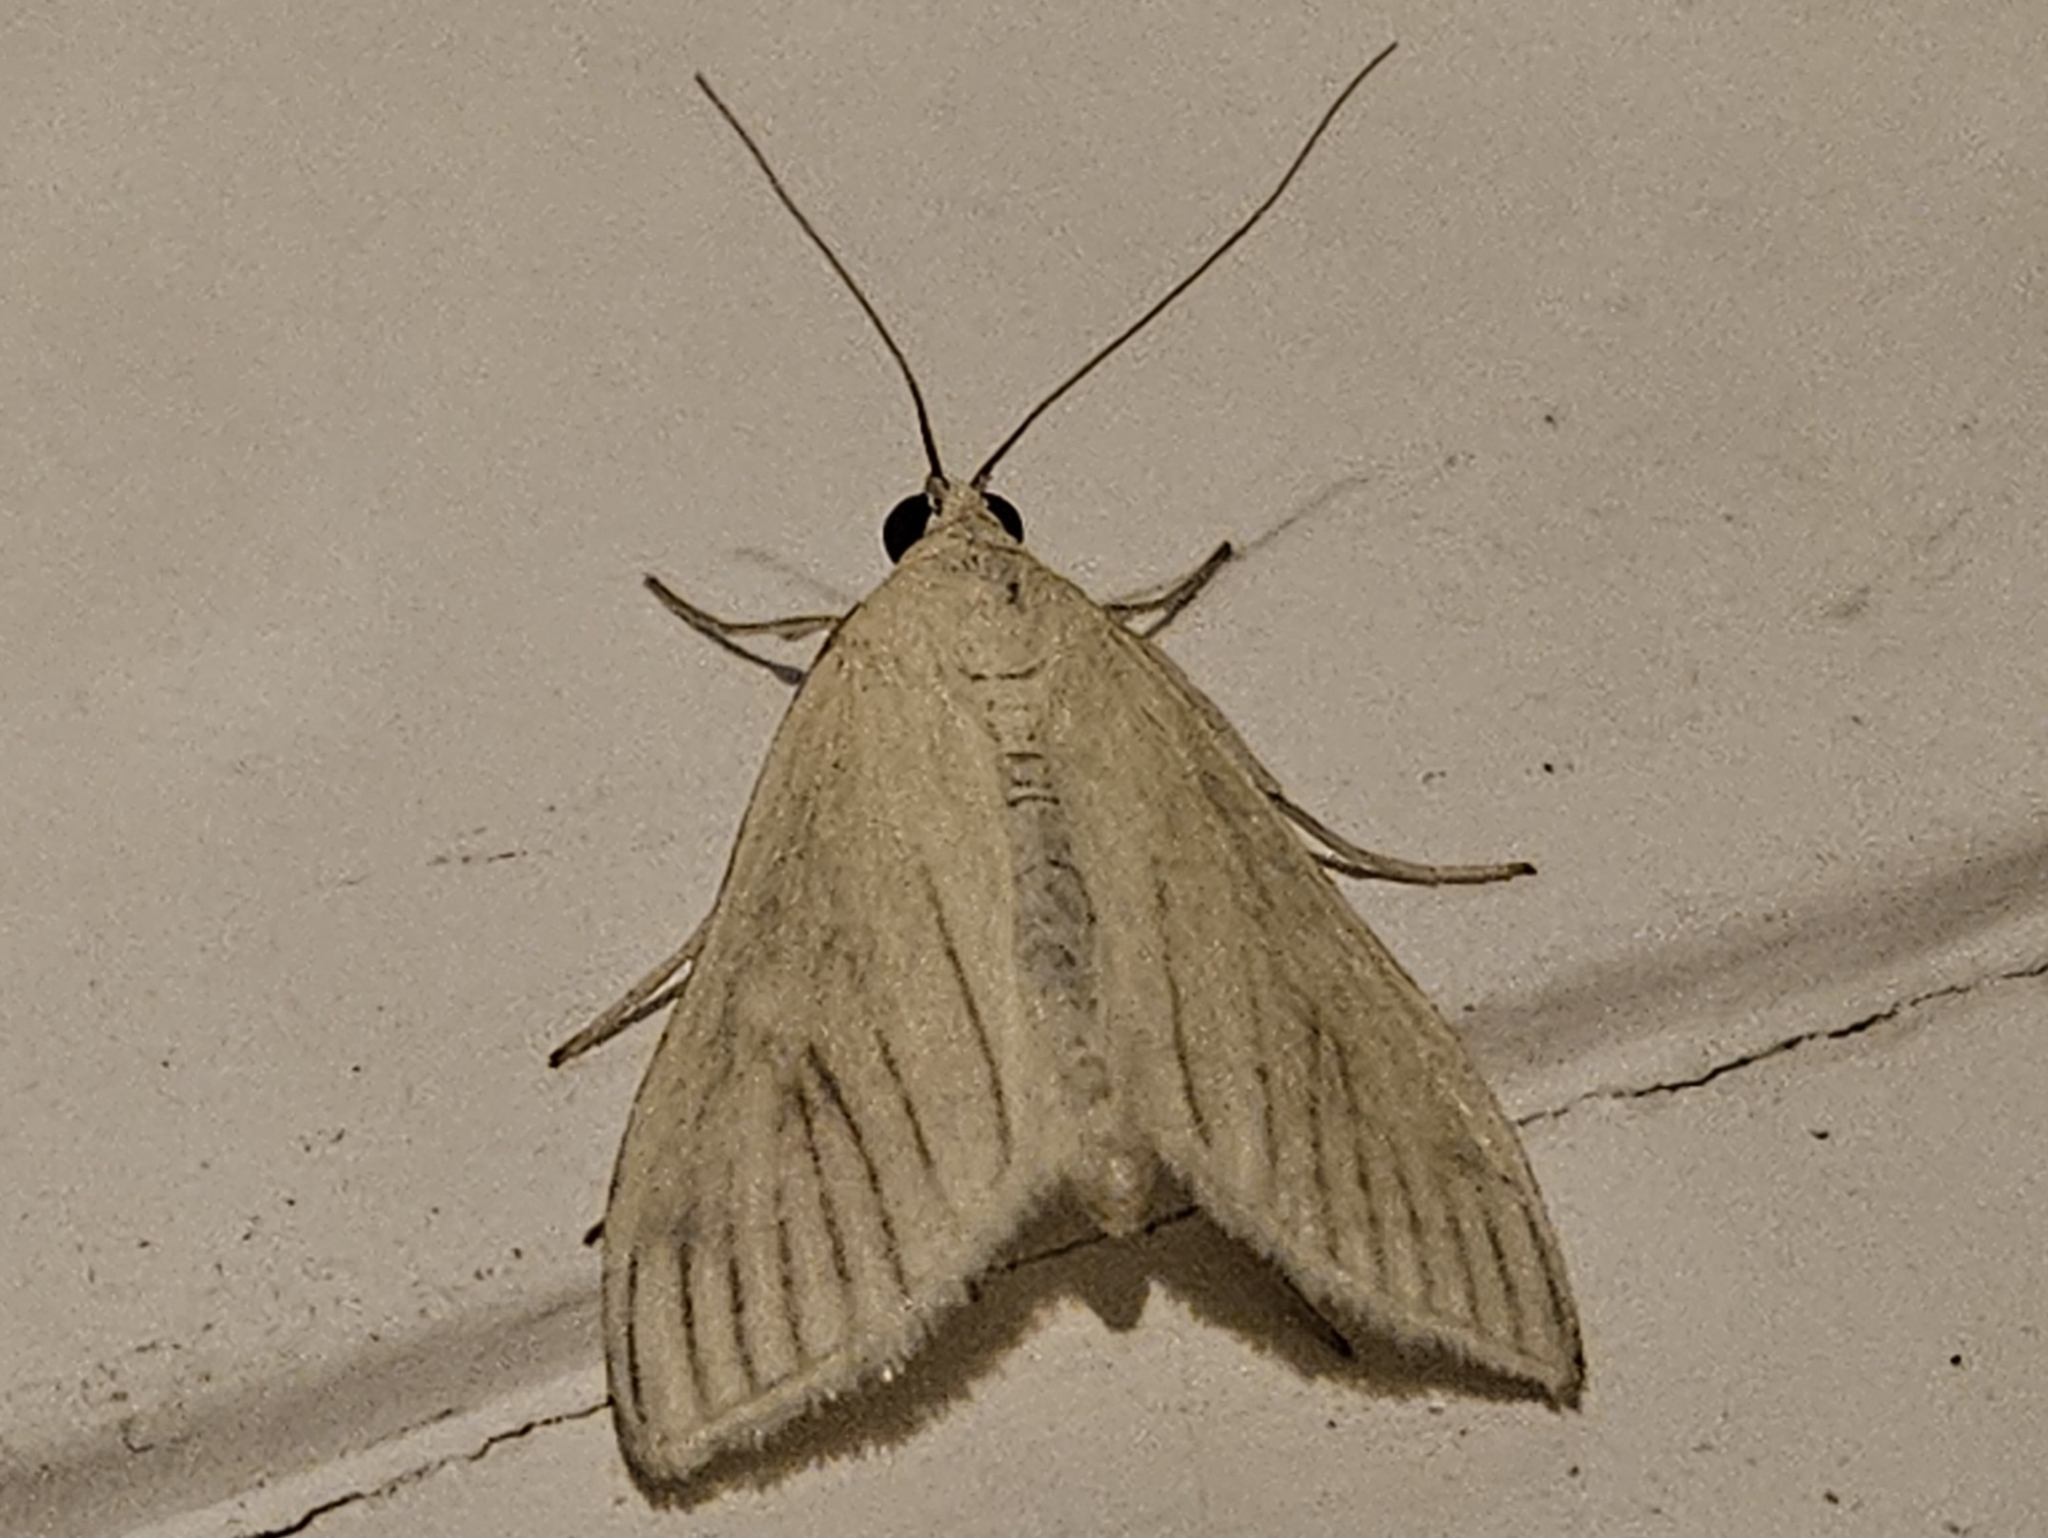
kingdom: Animalia
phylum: Arthropoda
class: Insecta
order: Lepidoptera
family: Crambidae
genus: Sitochroa
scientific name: Sitochroa palealis
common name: Greenish-yellow sitochroa moth
